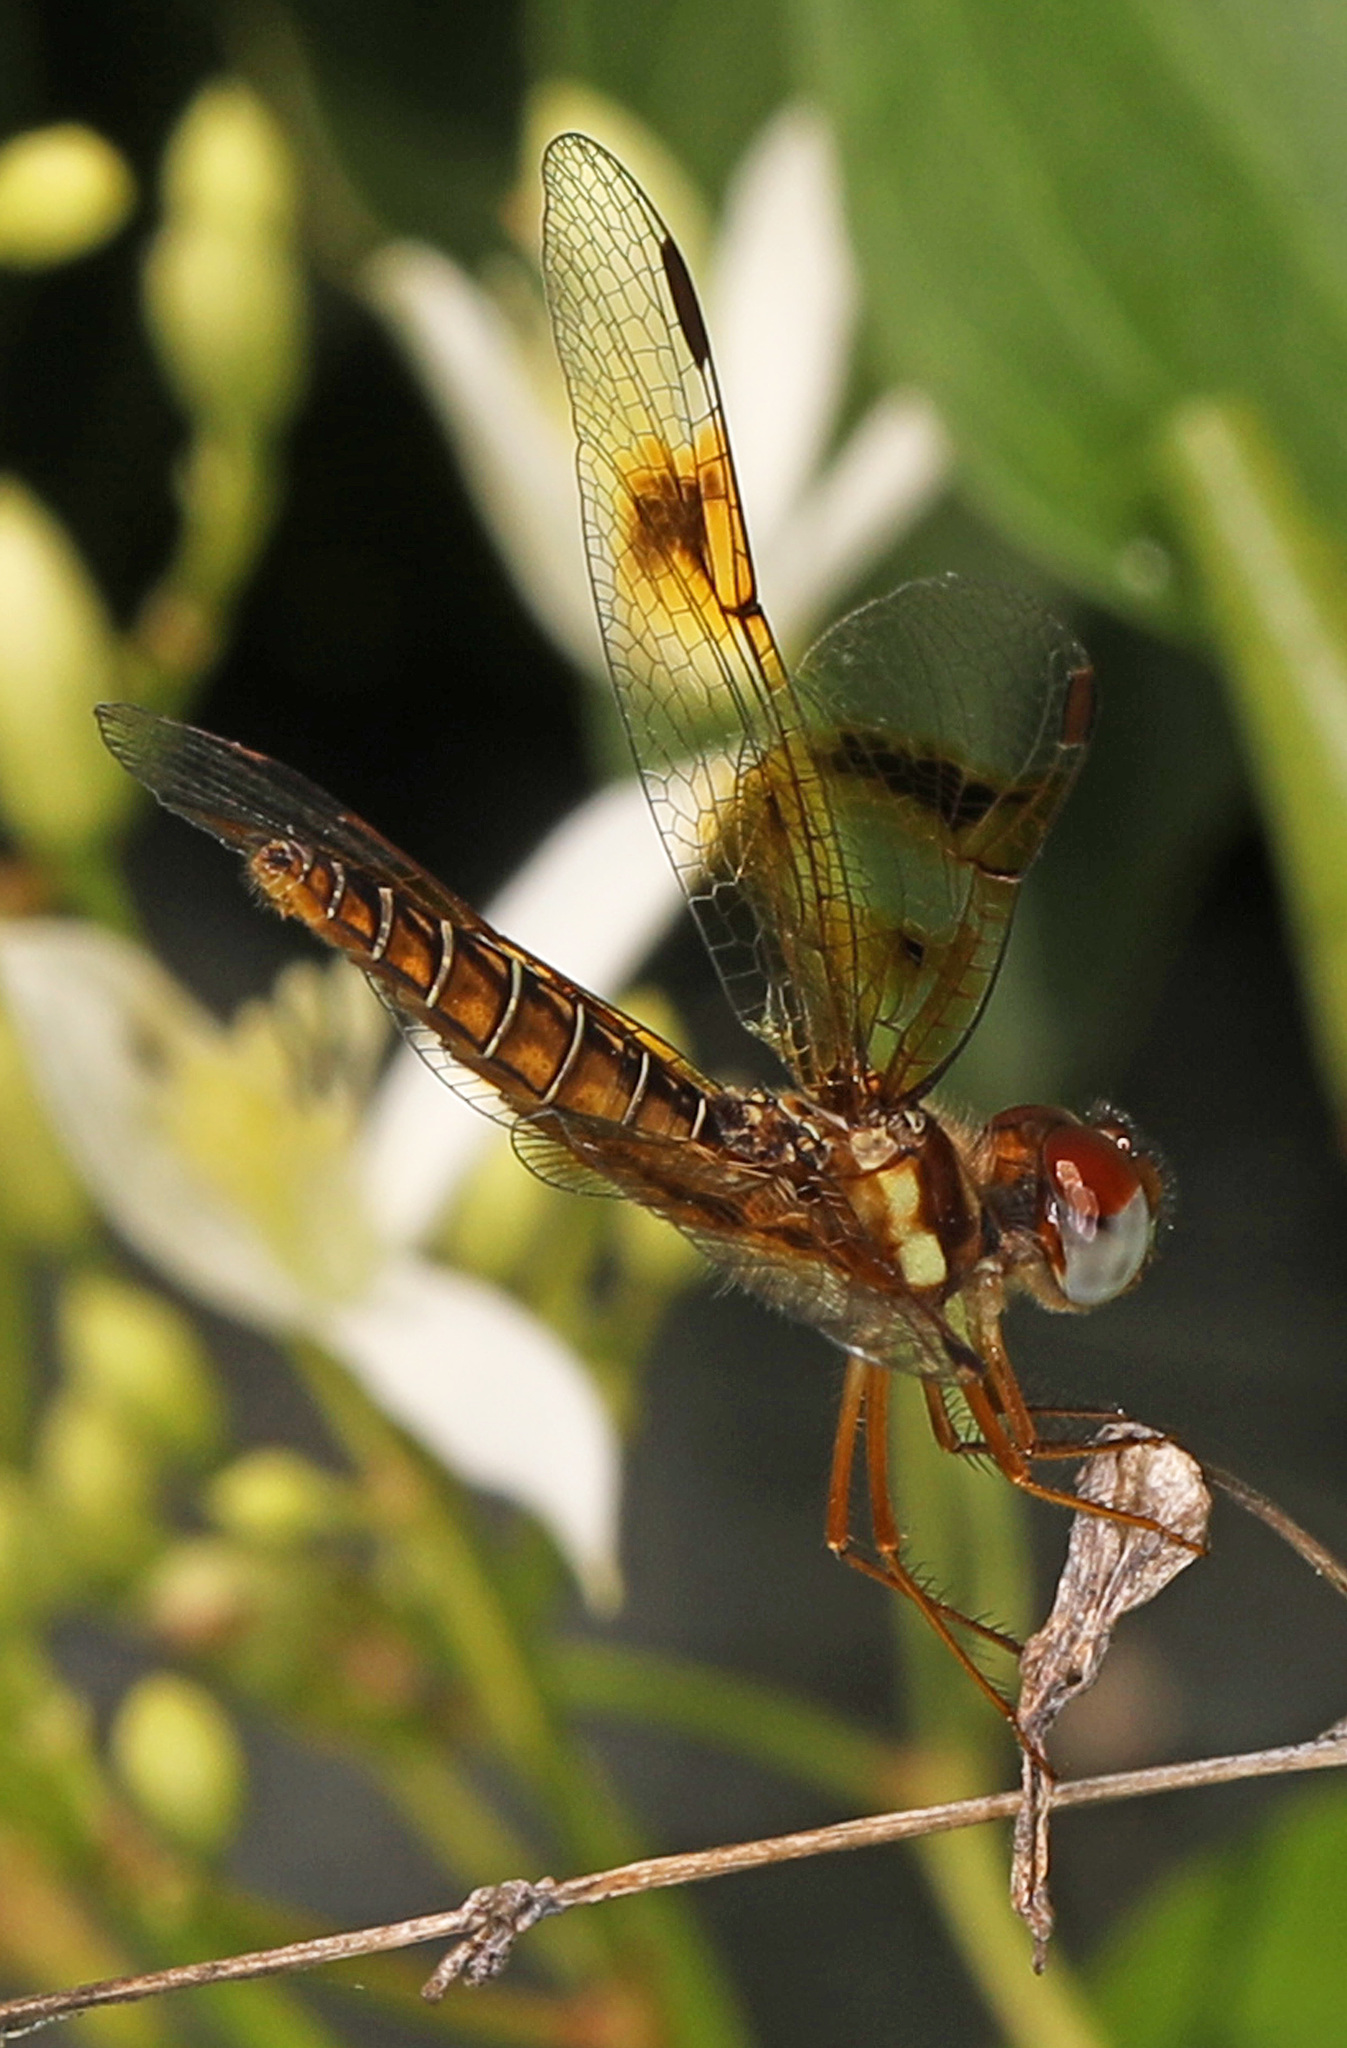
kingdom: Animalia
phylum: Arthropoda
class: Insecta
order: Odonata
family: Libellulidae
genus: Perithemis
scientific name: Perithemis tenera
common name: Eastern amberwing
